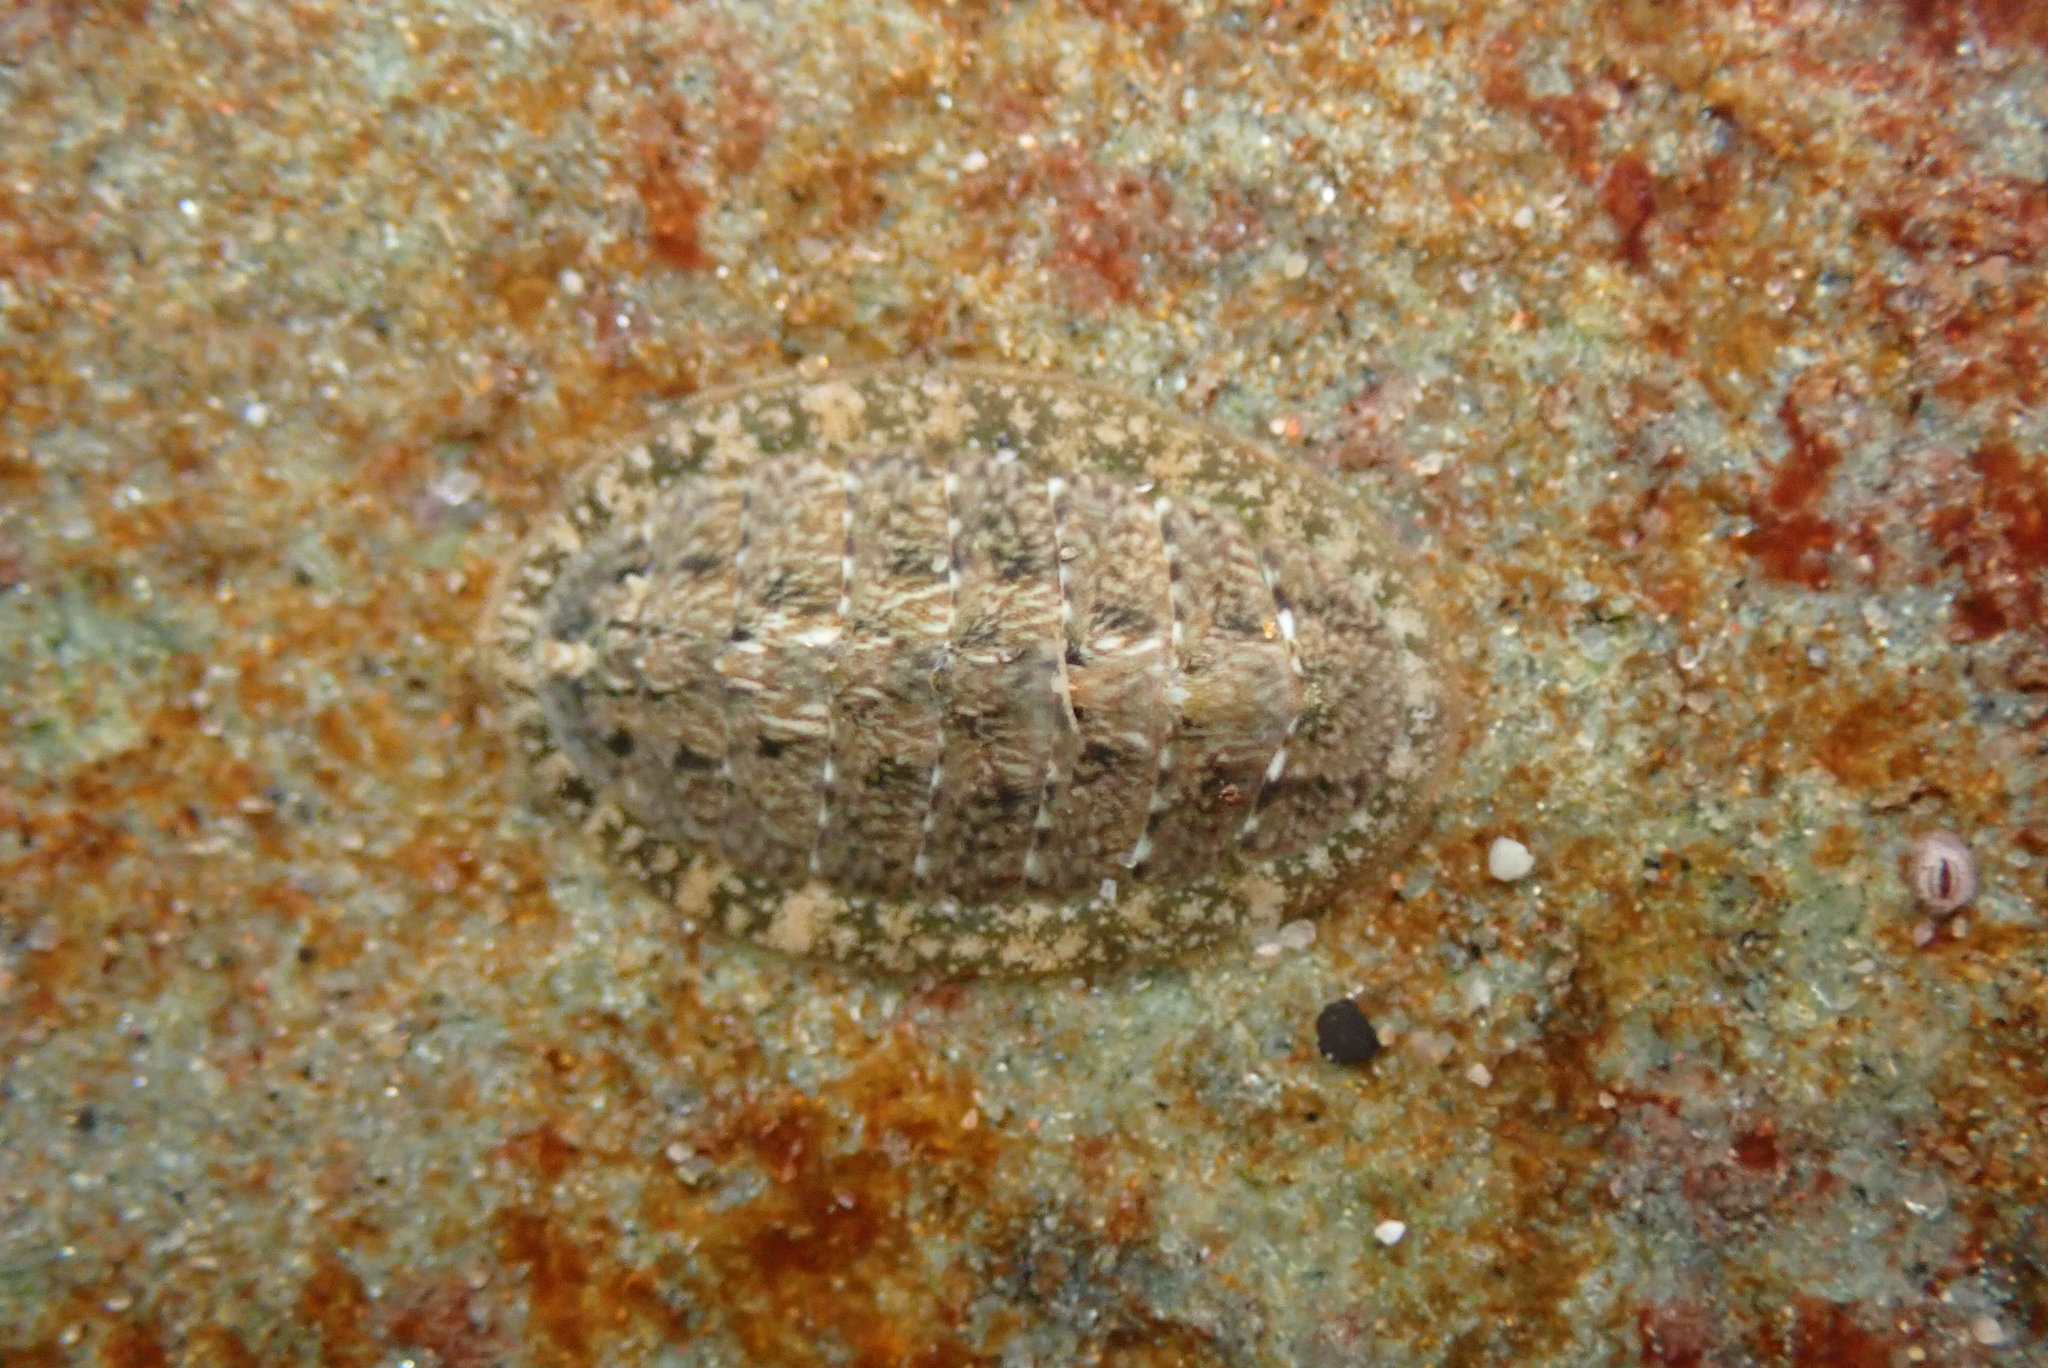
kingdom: Animalia
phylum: Mollusca
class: Polyplacophora
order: Chitonida
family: Tonicellidae
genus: Cyanoplax
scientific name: Cyanoplax keepiana
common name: Keep's chiton
